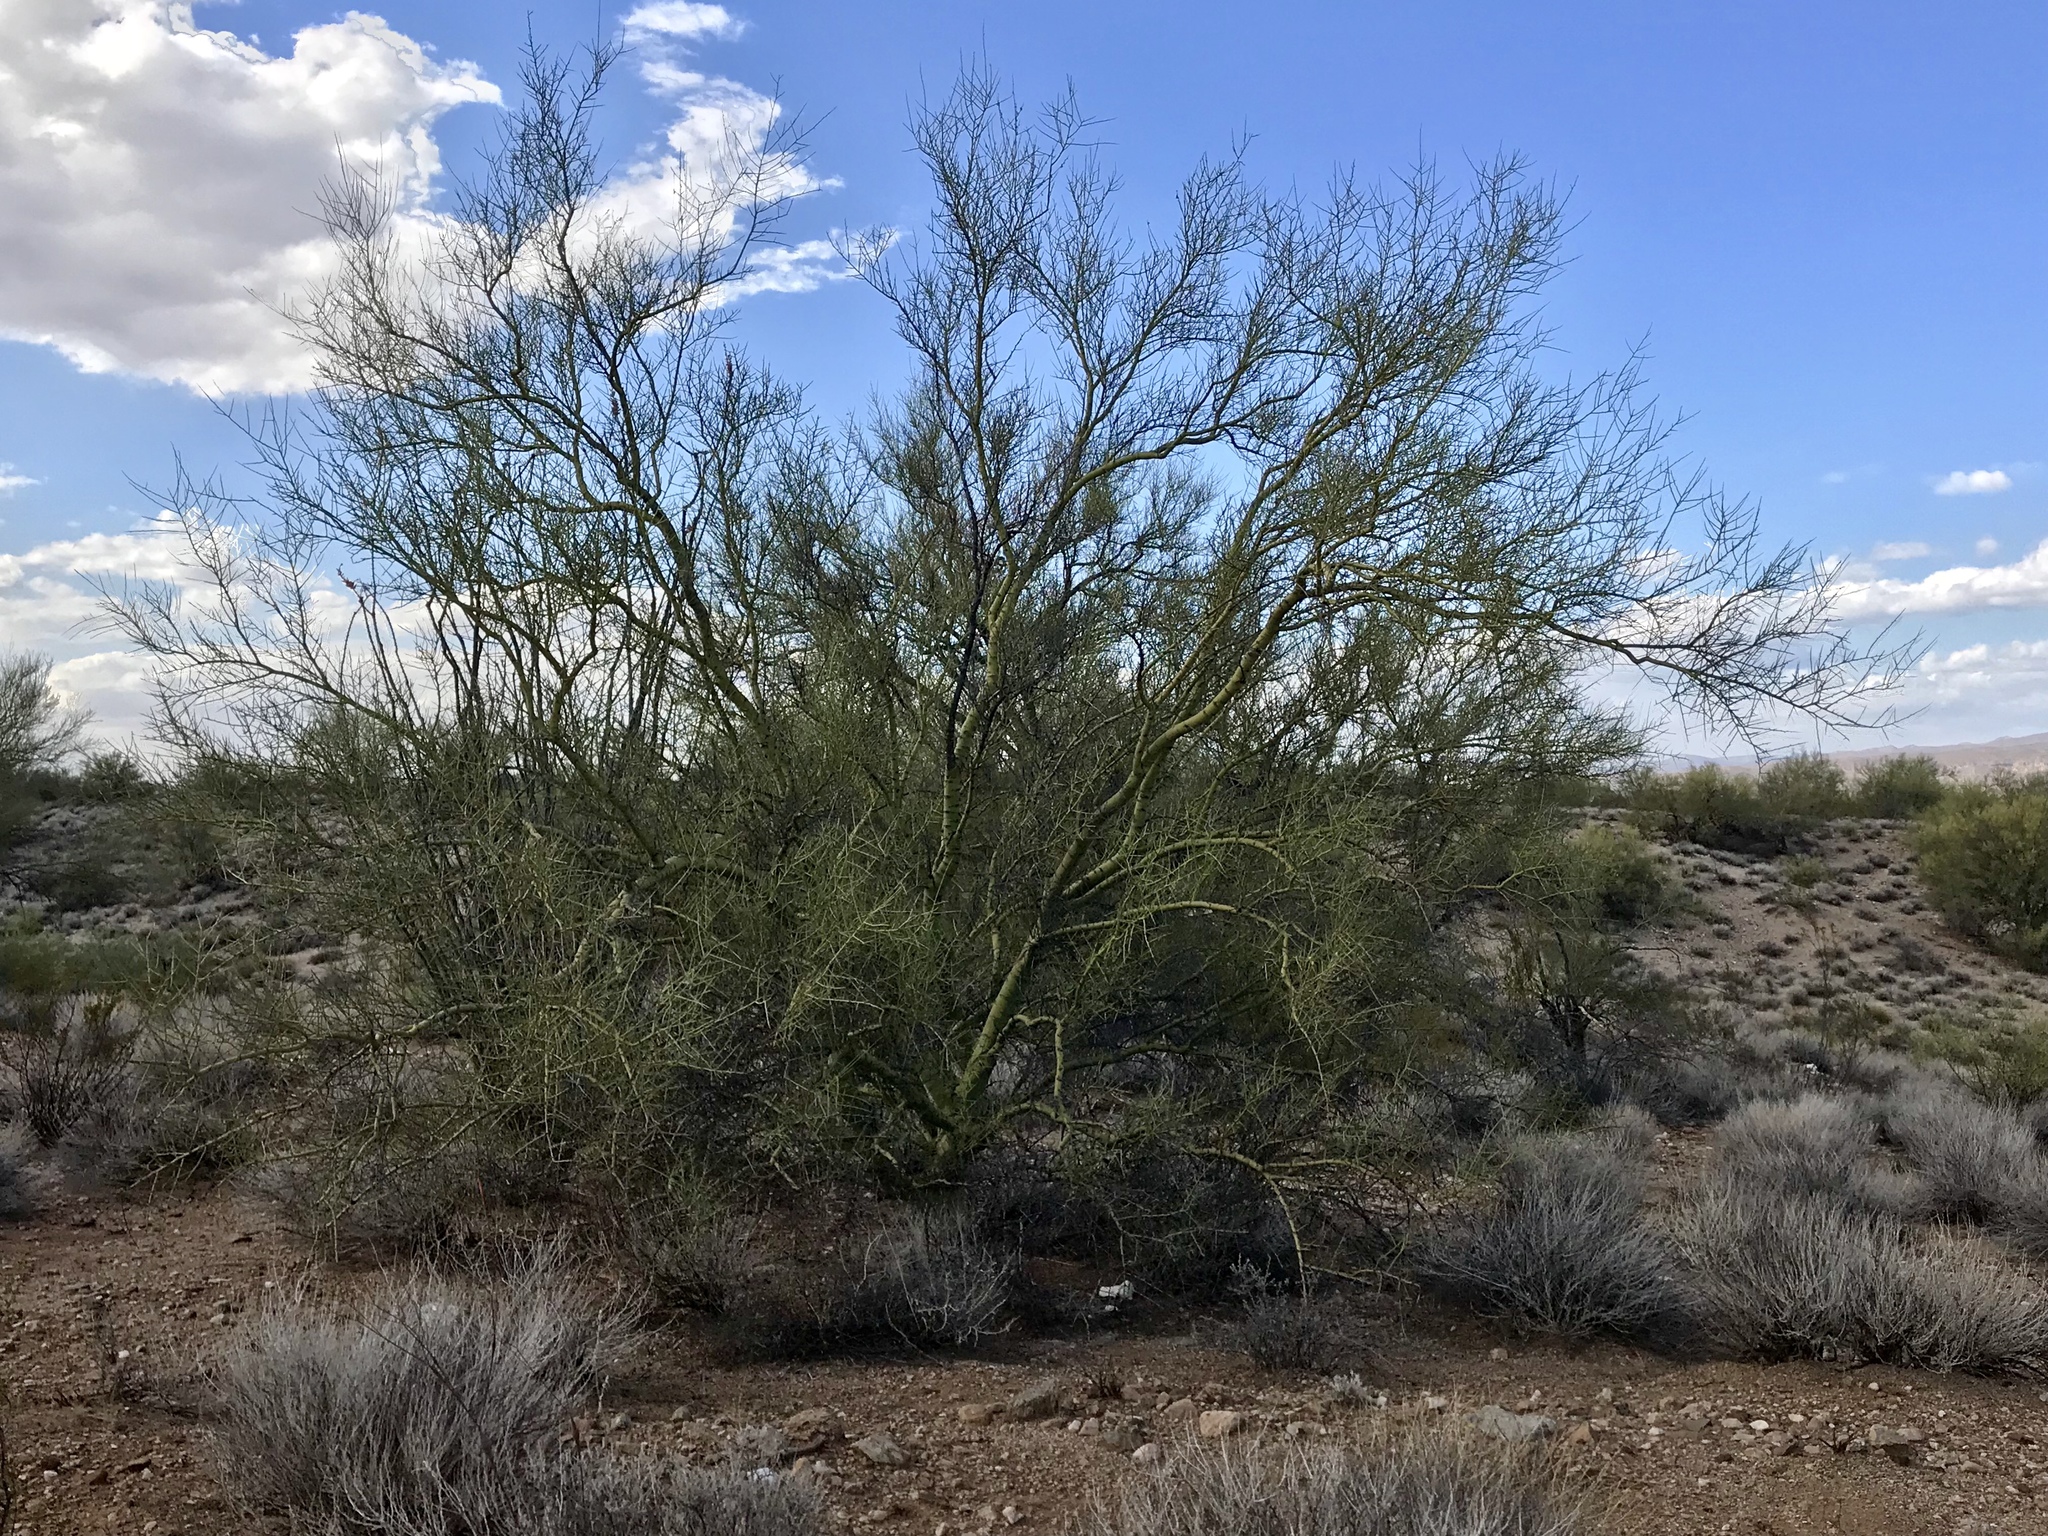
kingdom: Plantae
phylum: Tracheophyta
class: Magnoliopsida
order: Fabales
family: Fabaceae
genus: Parkinsonia
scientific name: Parkinsonia microphylla
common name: Yellow paloverde
